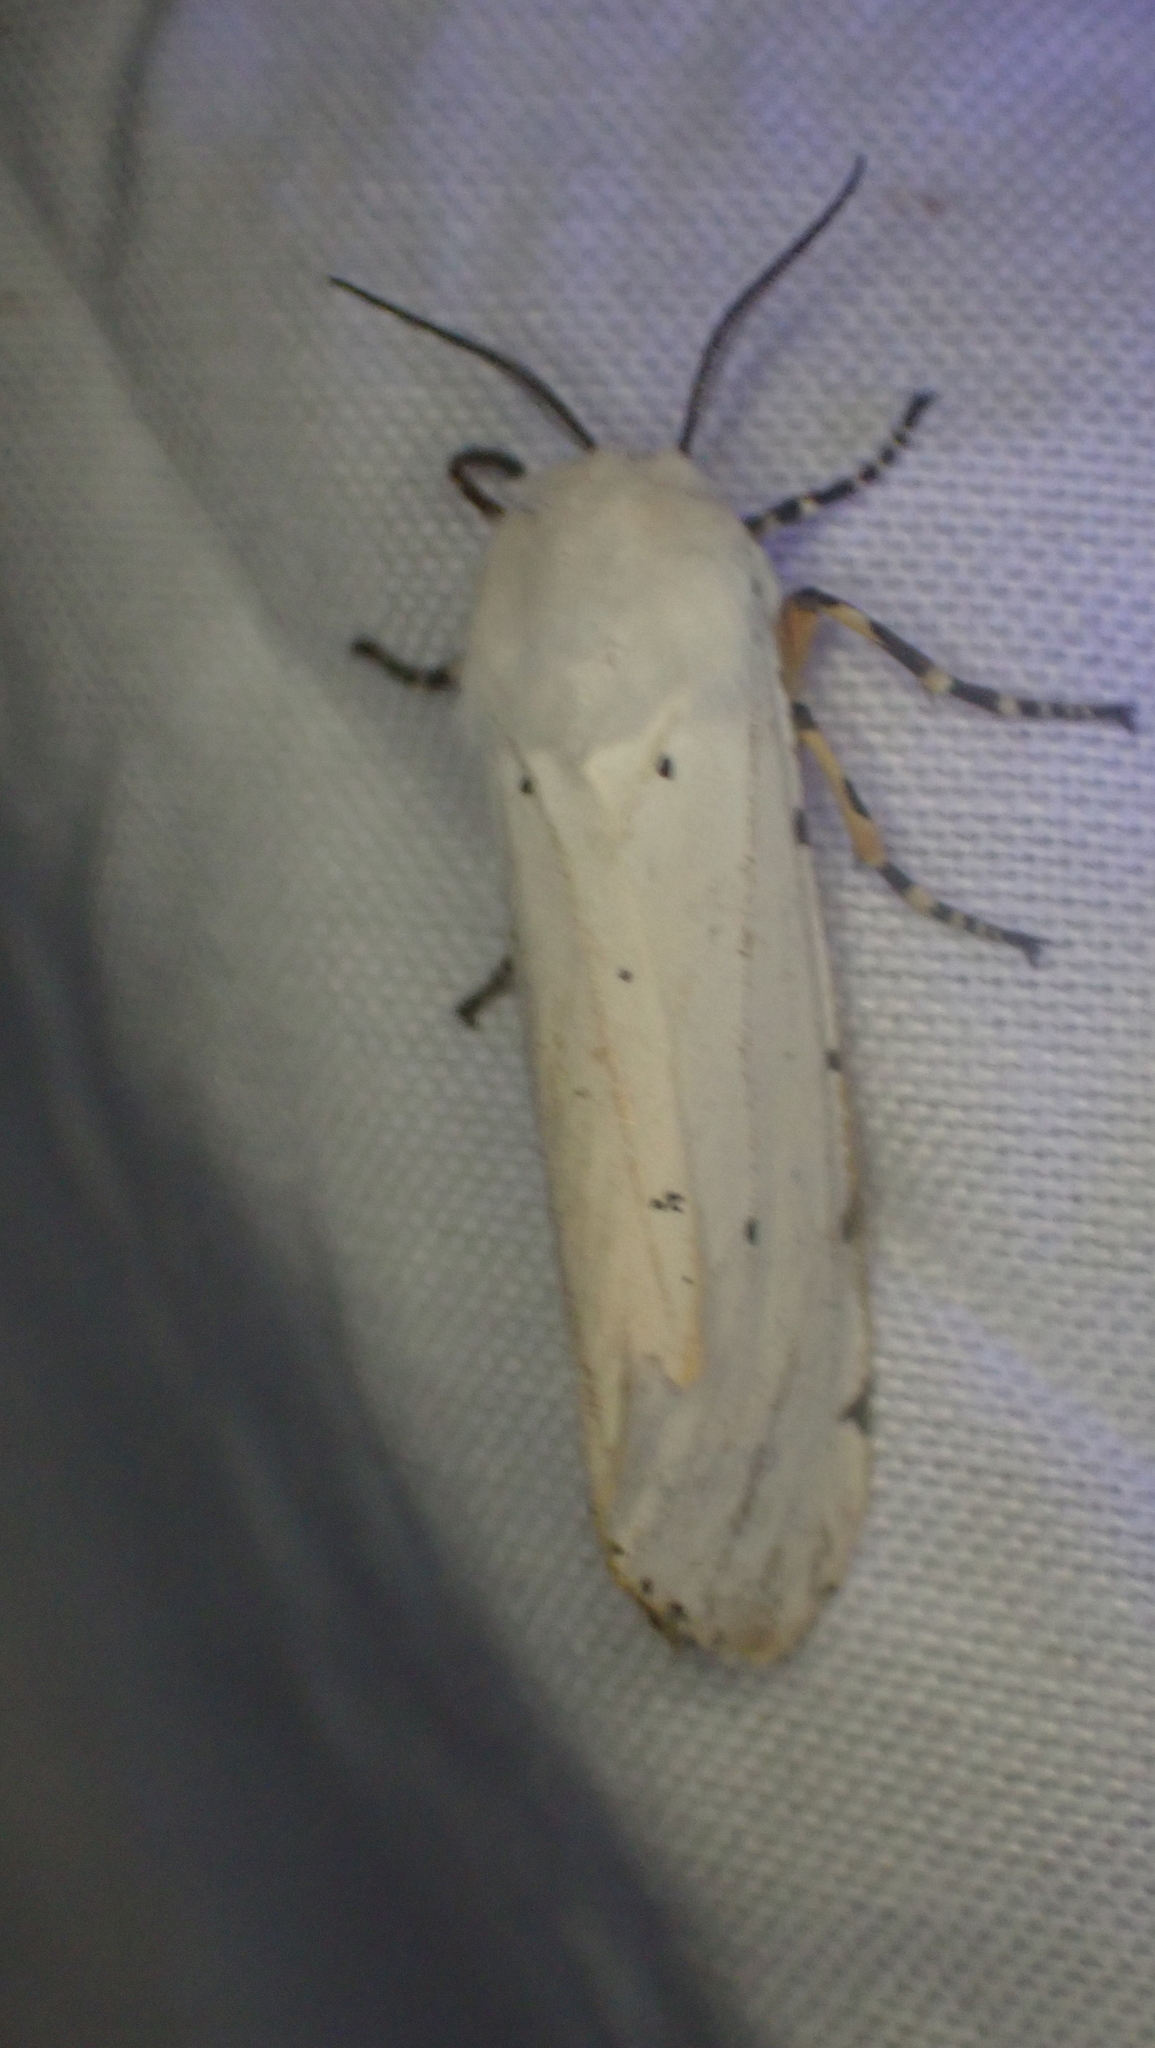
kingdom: Animalia
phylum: Arthropoda
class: Insecta
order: Lepidoptera
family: Erebidae
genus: Estigmene
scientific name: Estigmene acrea
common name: Salt marsh moth
